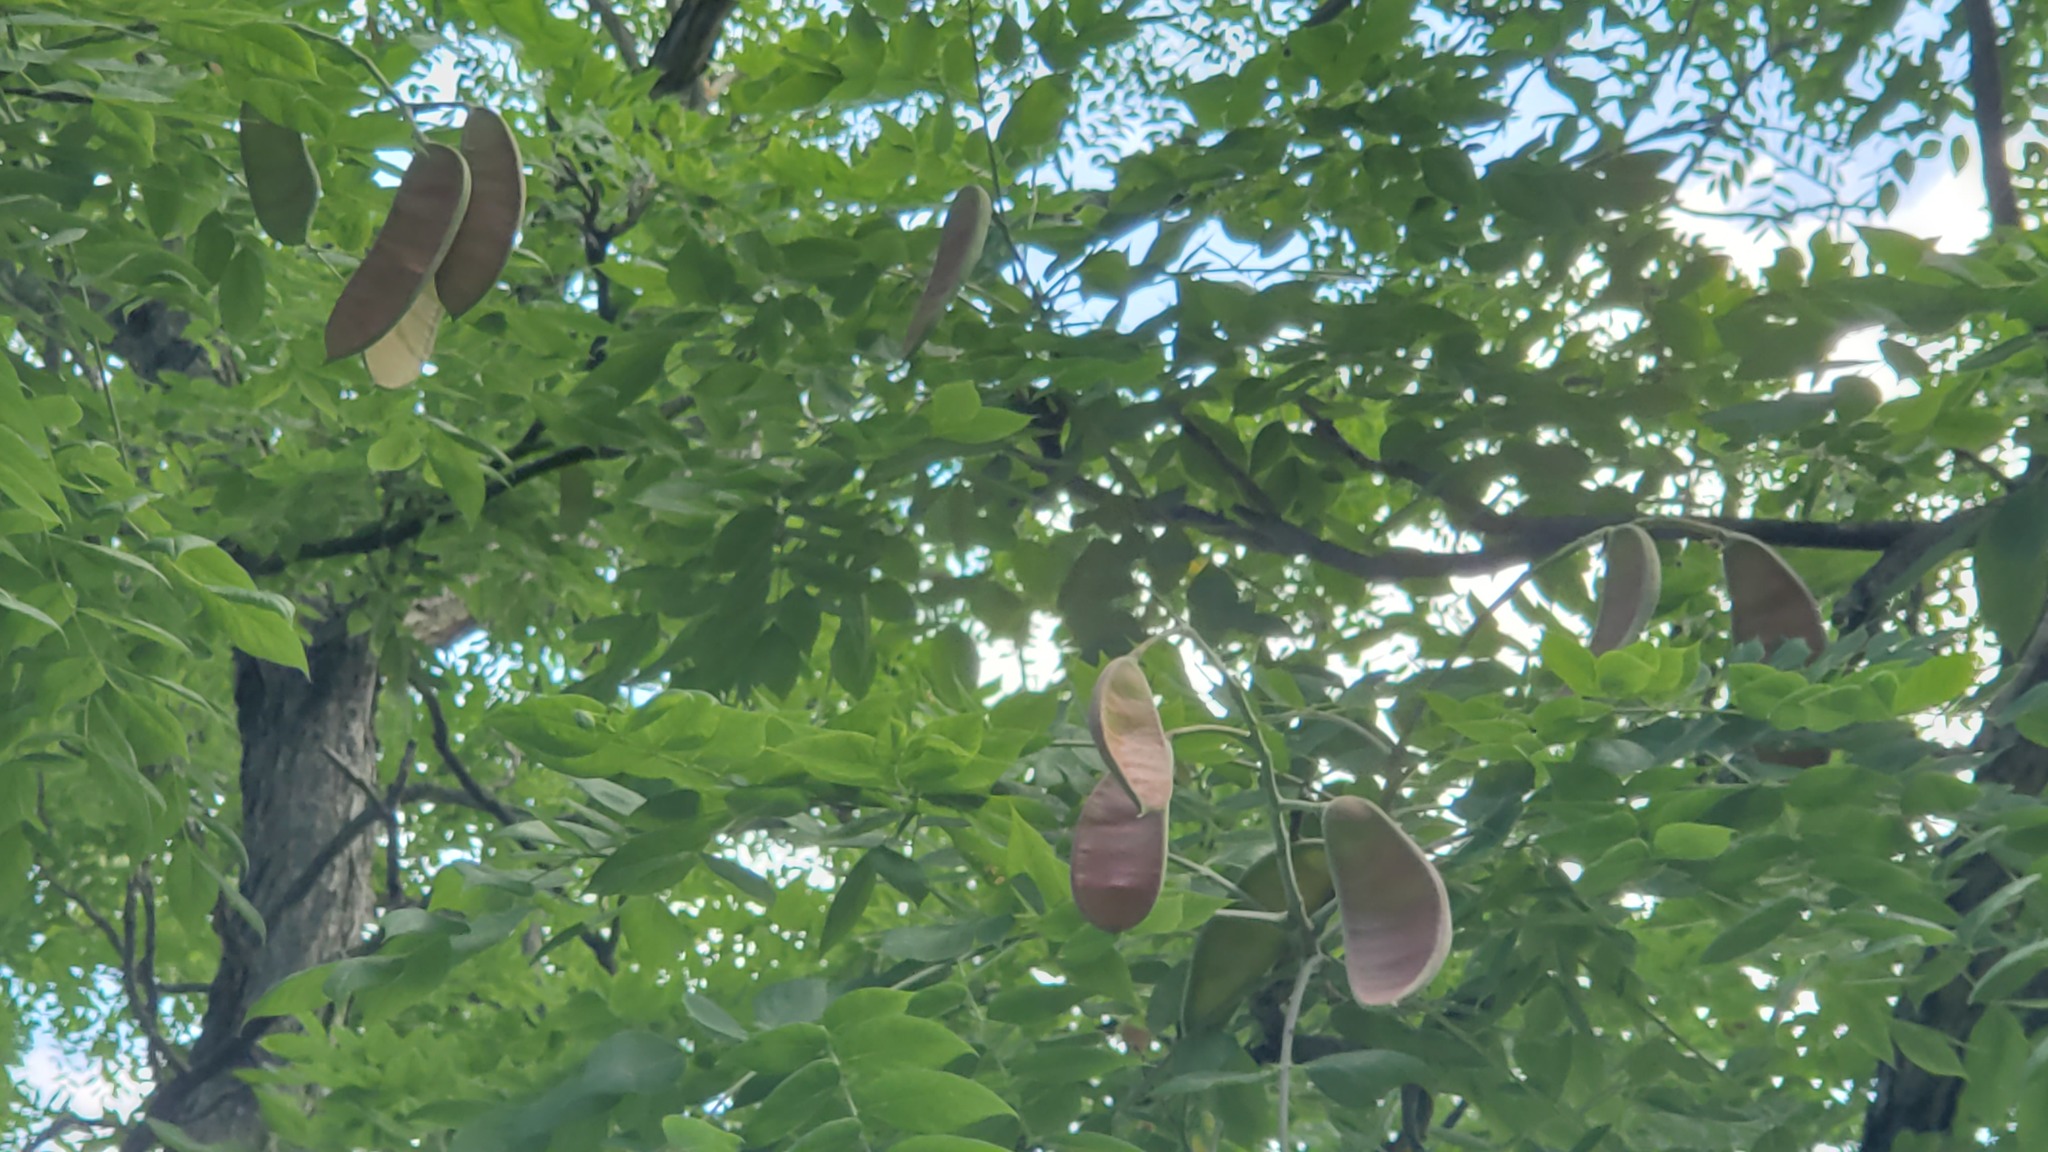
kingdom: Plantae
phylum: Tracheophyta
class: Magnoliopsida
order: Fabales
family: Fabaceae
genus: Gymnocladus
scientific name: Gymnocladus dioicus
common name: Kentucky coffee-tree
